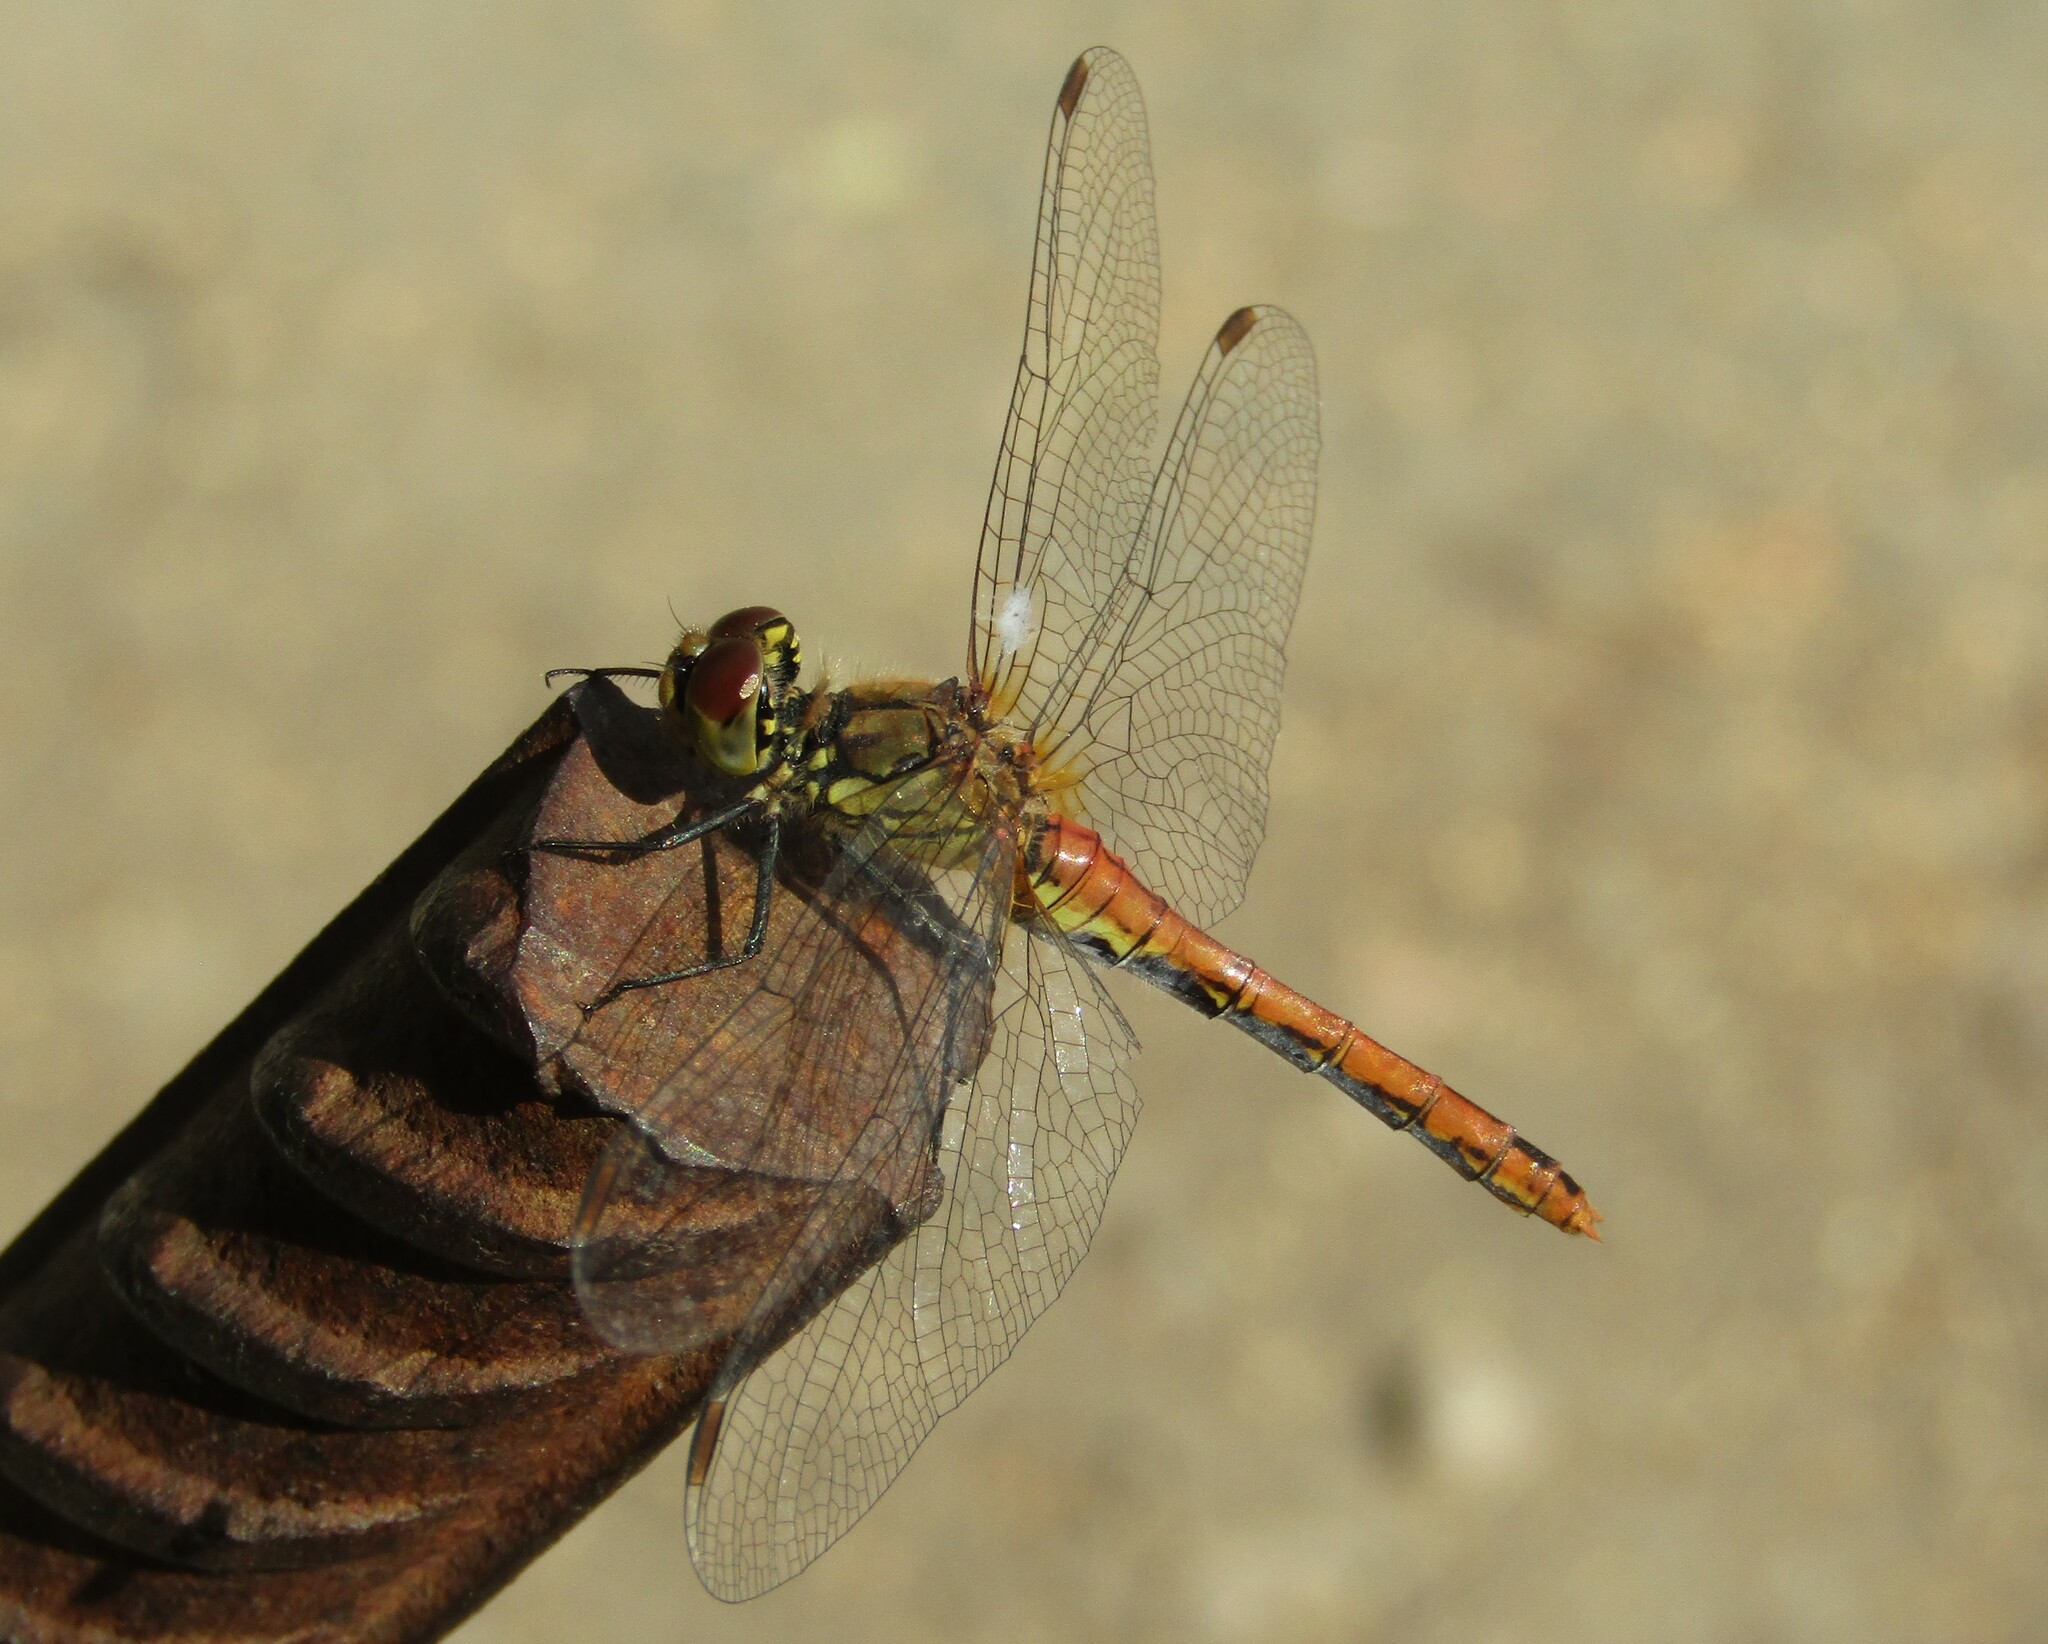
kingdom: Animalia
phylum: Arthropoda
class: Insecta
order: Odonata
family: Libellulidae
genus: Sympetrum
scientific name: Sympetrum sanguineum
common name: Ruddy darter
